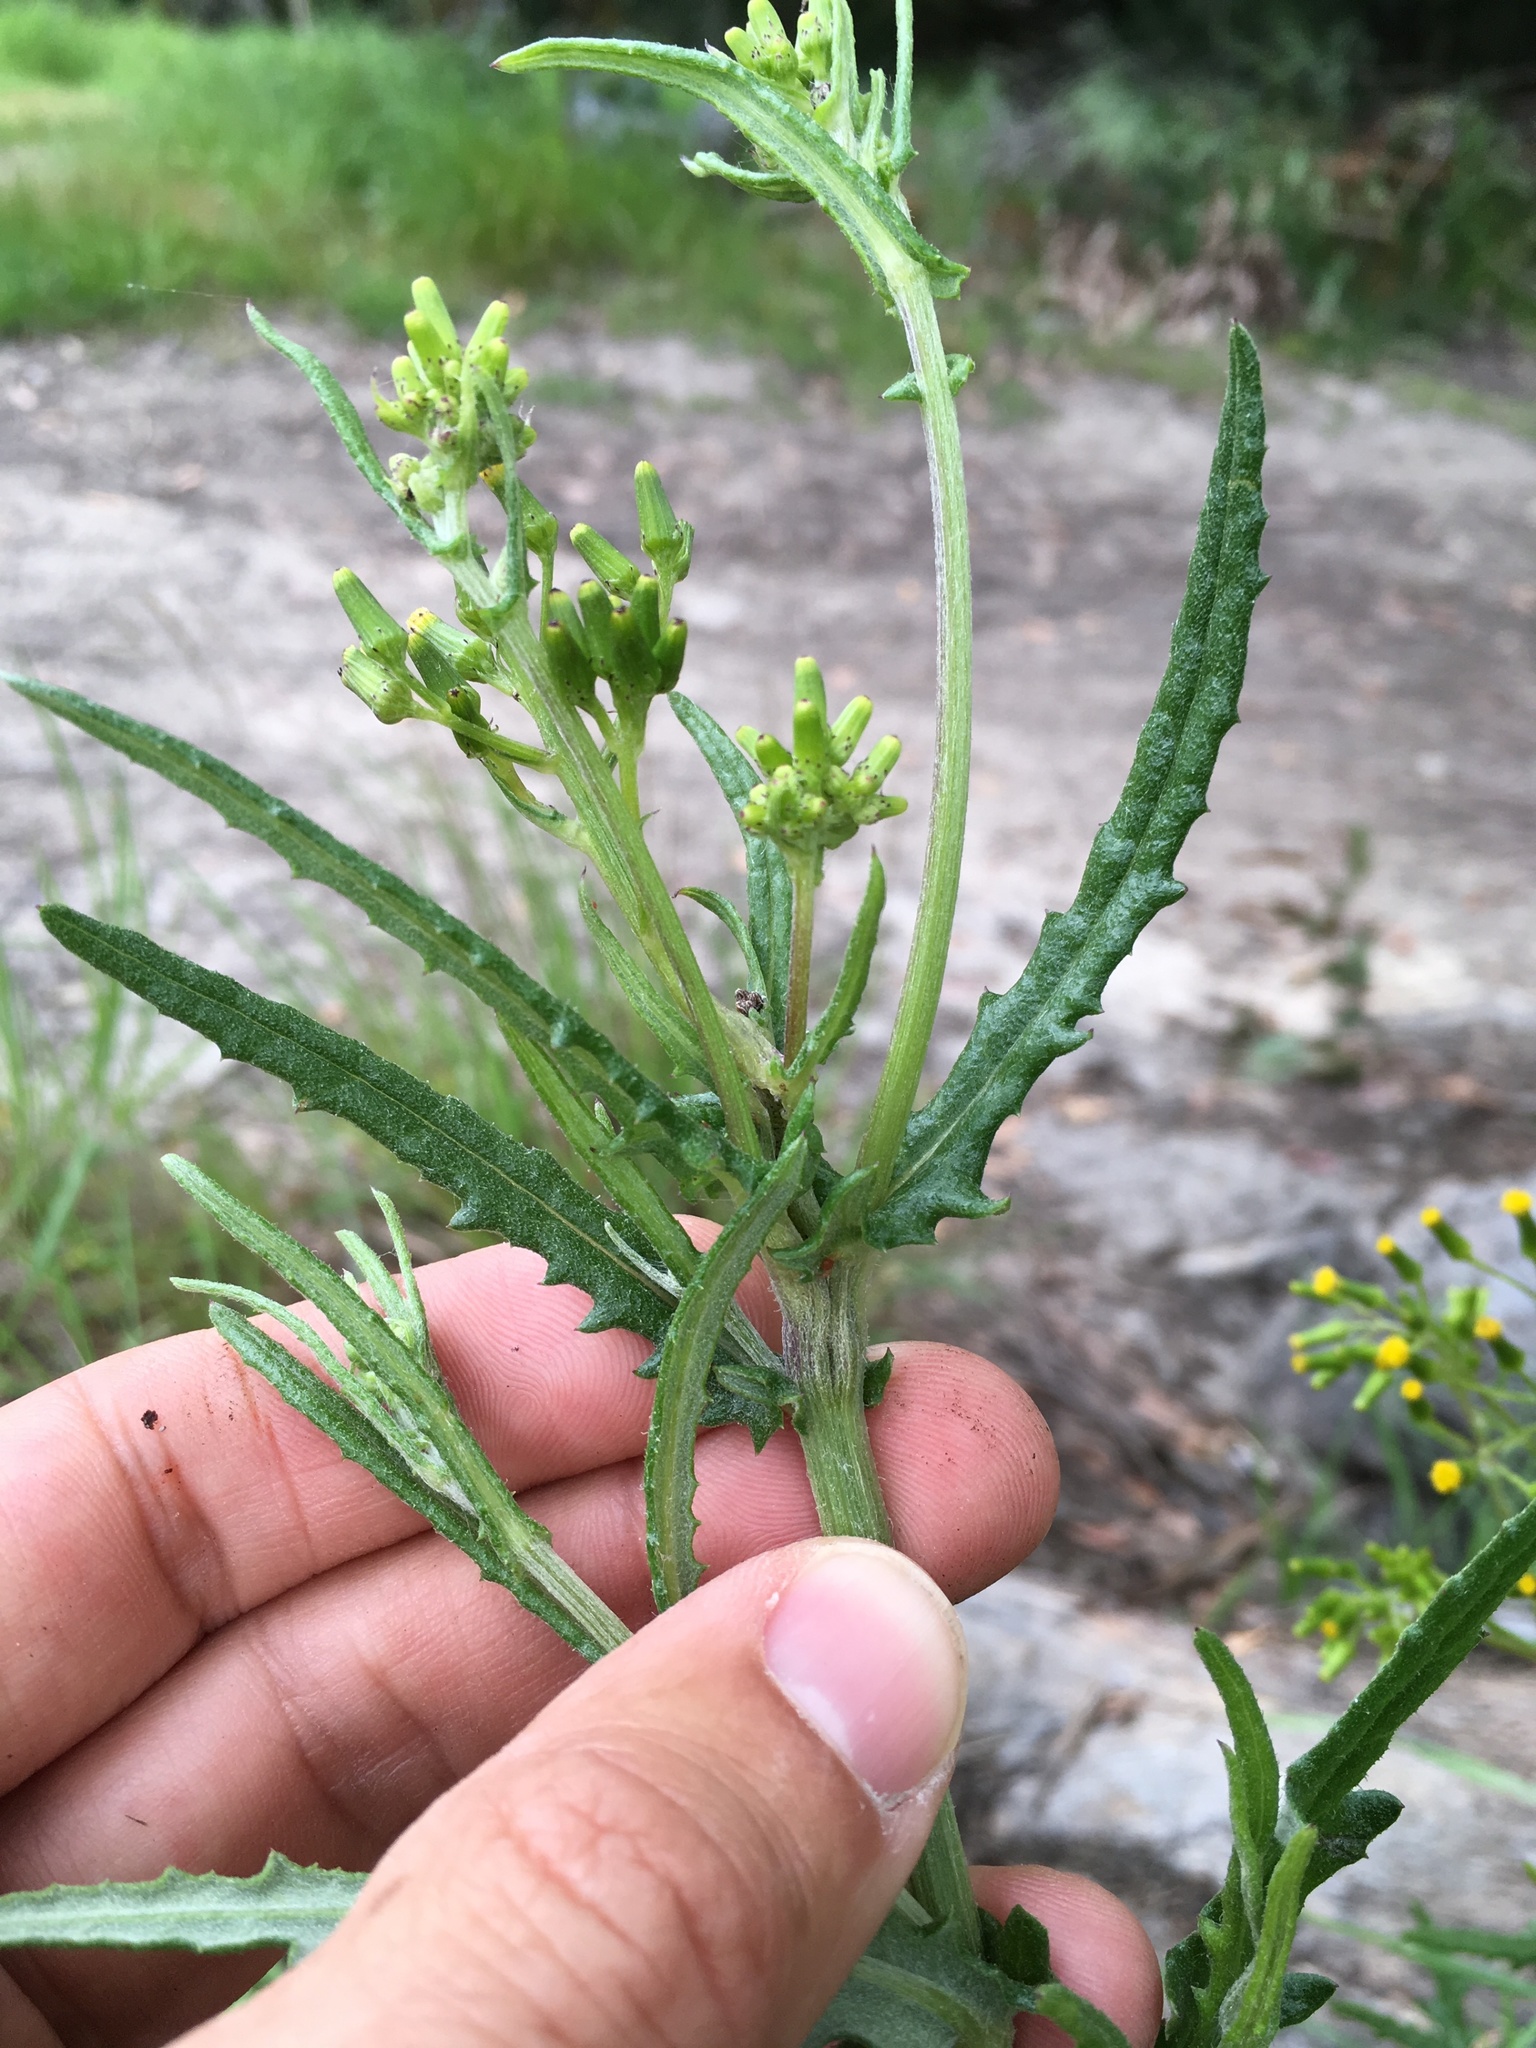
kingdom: Plantae
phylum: Tracheophyta
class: Magnoliopsida
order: Asterales
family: Asteraceae
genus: Senecio
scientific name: Senecio glomeratus
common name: Cutleaf burnweed
